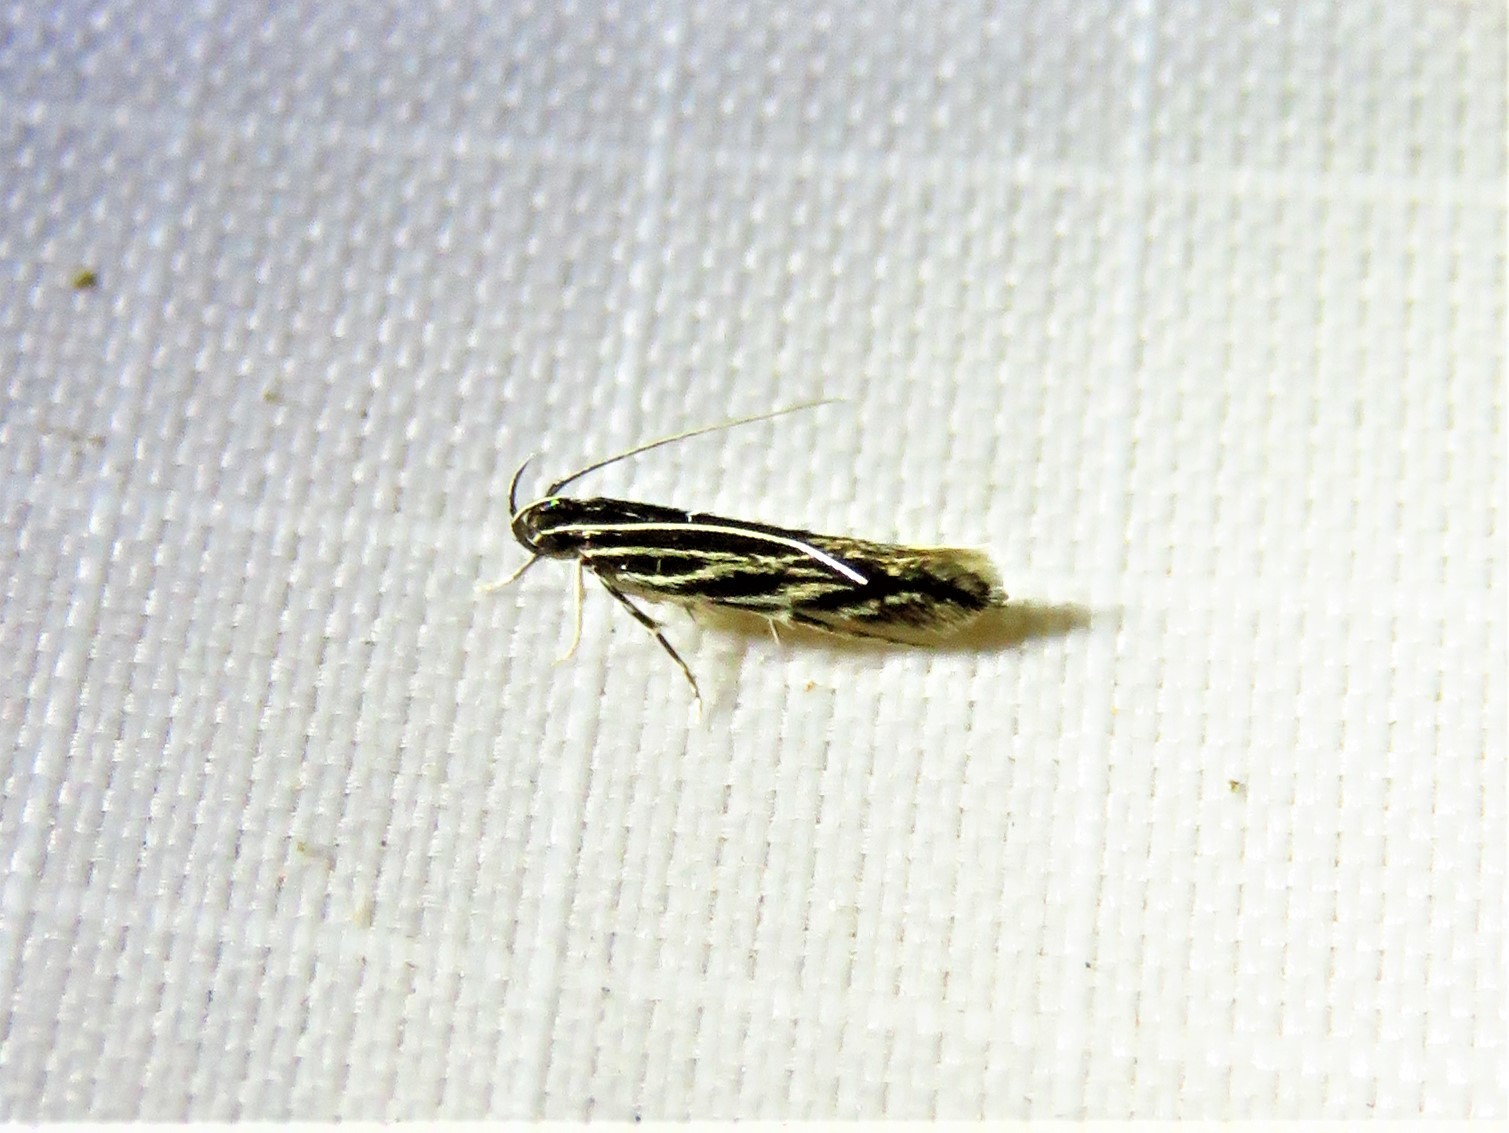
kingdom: Animalia
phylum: Arthropoda
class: Insecta
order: Lepidoptera
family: Cosmopterigidae
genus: Eralea
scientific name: Eralea albalineella
